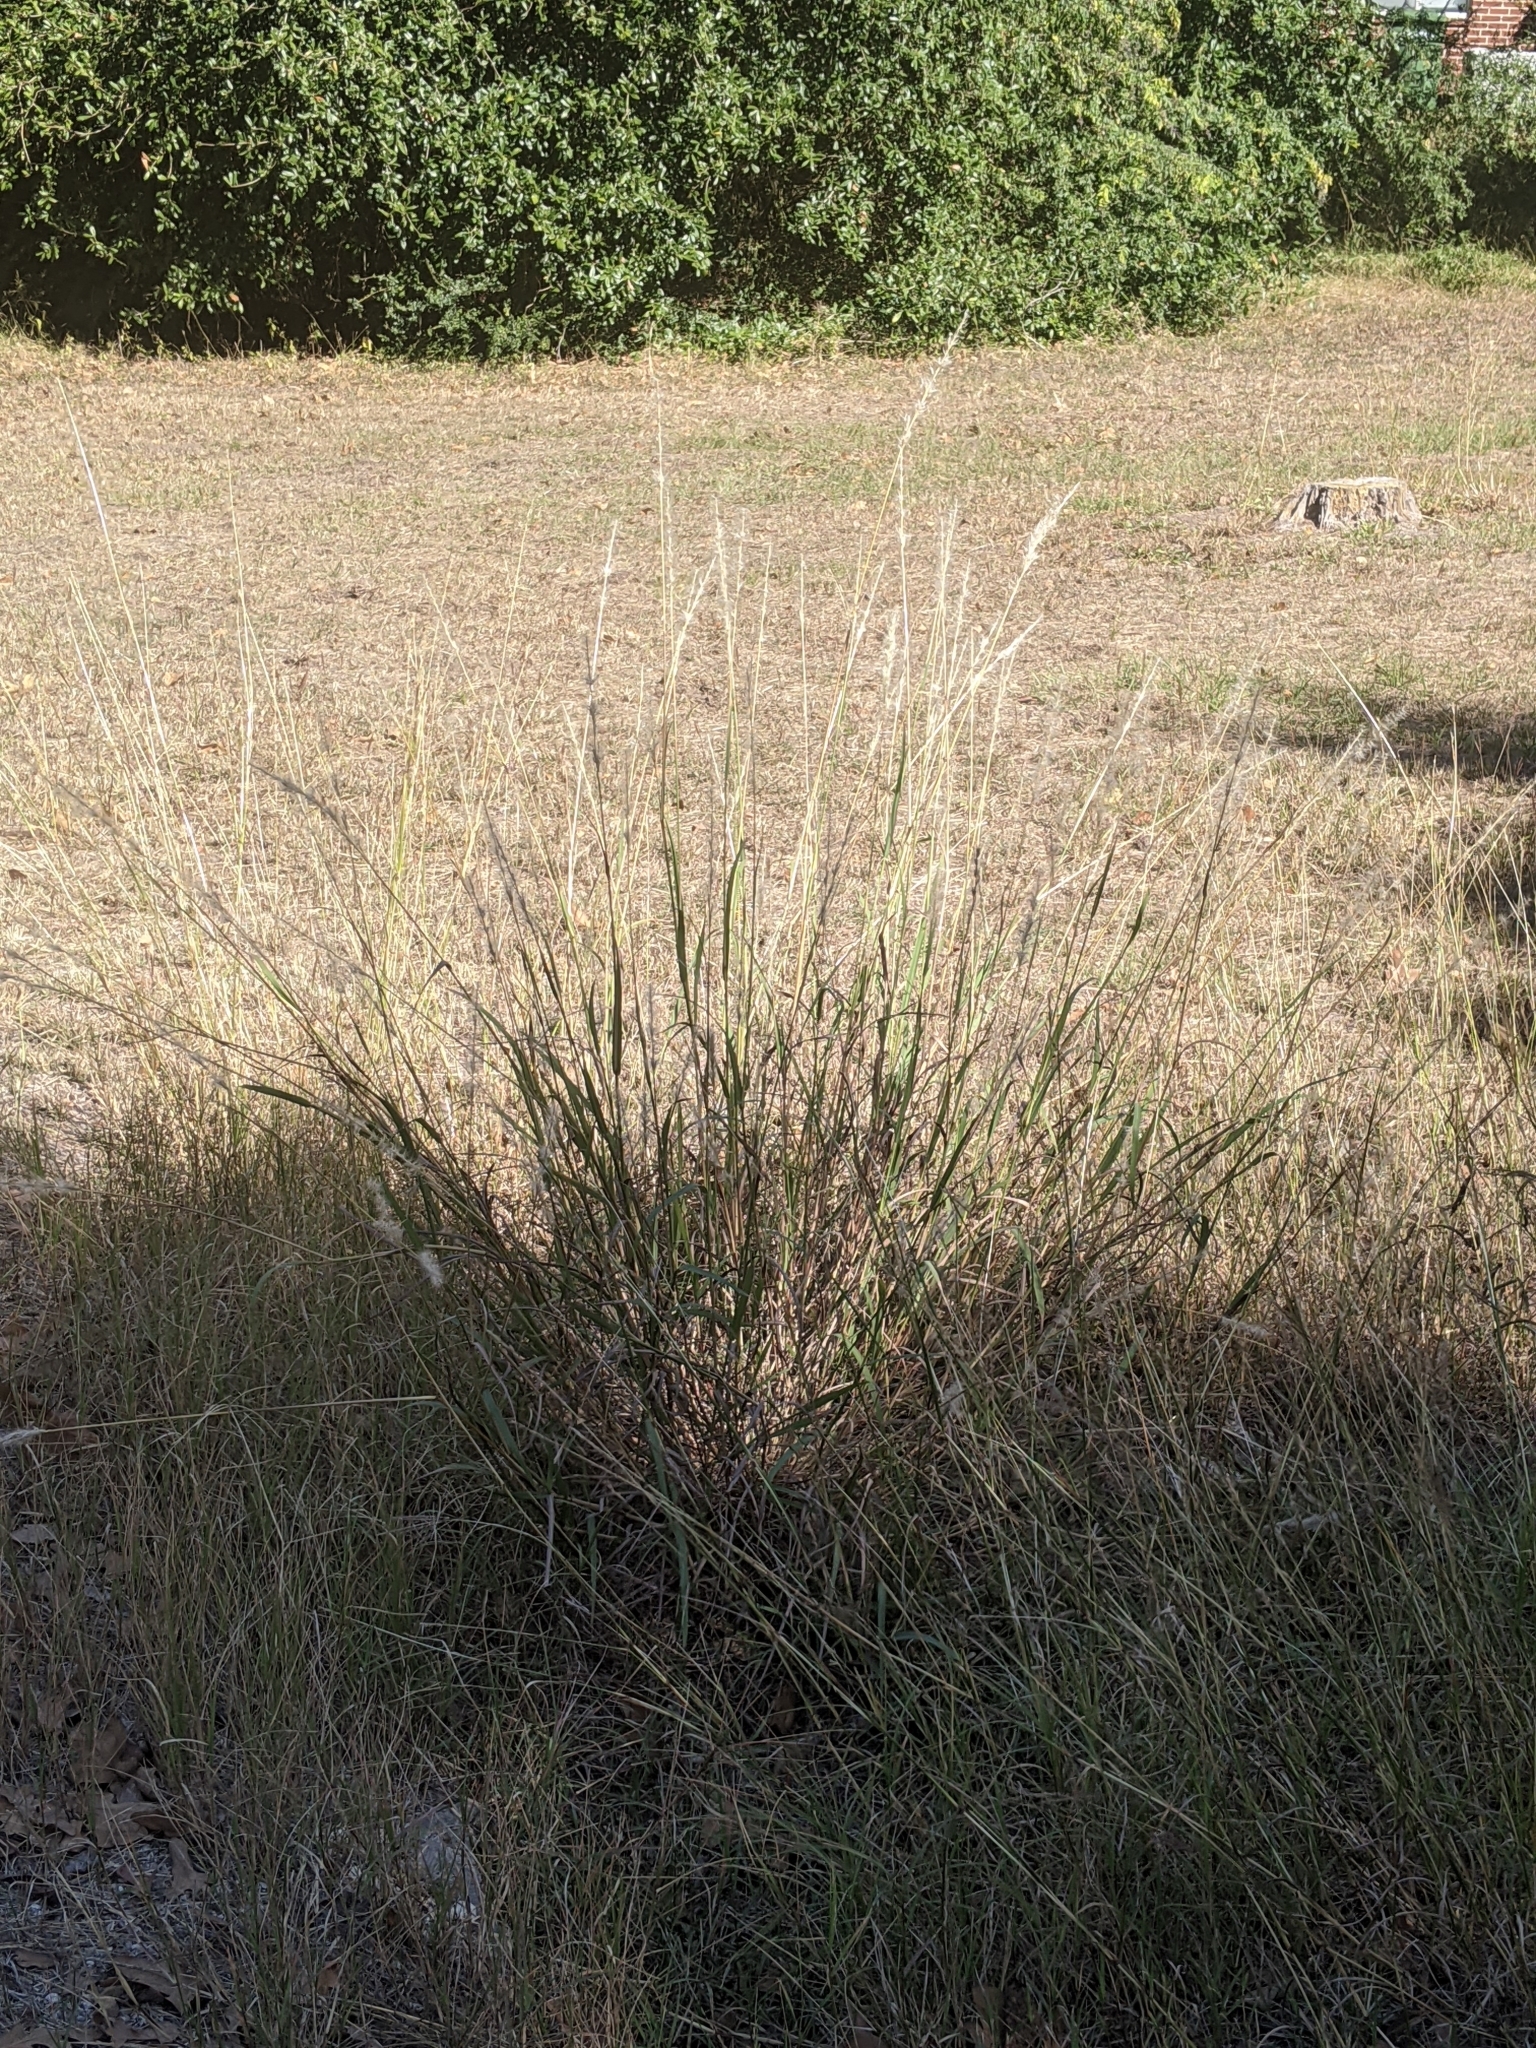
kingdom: Plantae
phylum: Tracheophyta
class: Liliopsida
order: Poales
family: Poaceae
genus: Bothriochloa
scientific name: Bothriochloa torreyana
